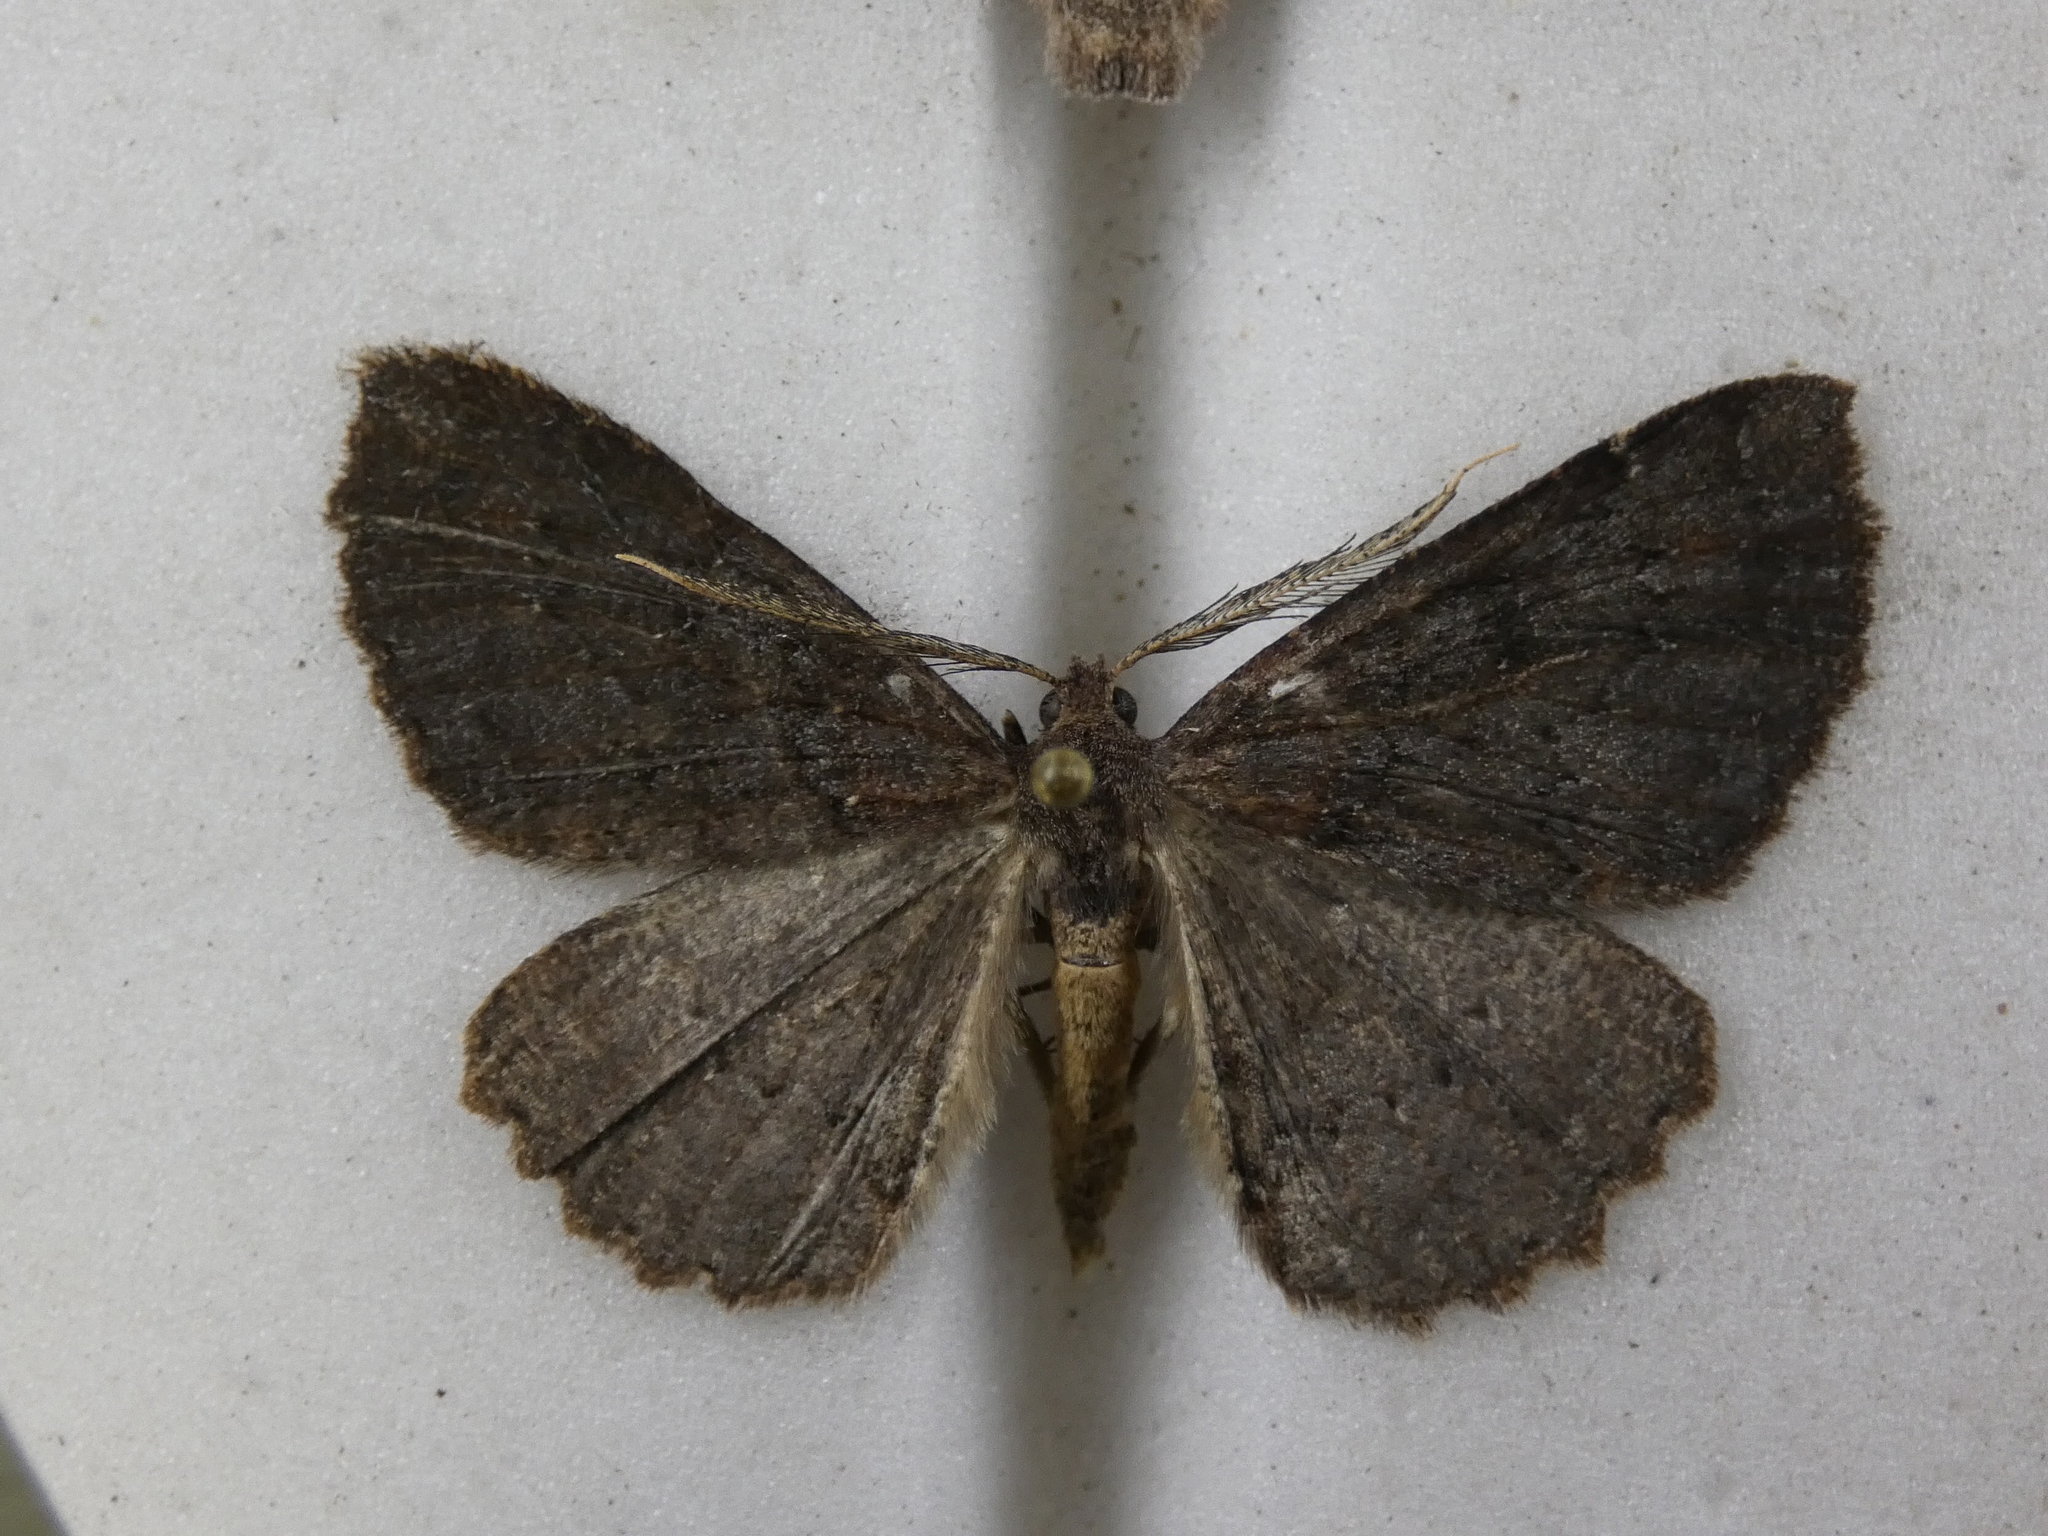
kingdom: Animalia
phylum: Arthropoda
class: Insecta
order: Lepidoptera
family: Geometridae
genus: Cleora
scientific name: Cleora scriptaria
